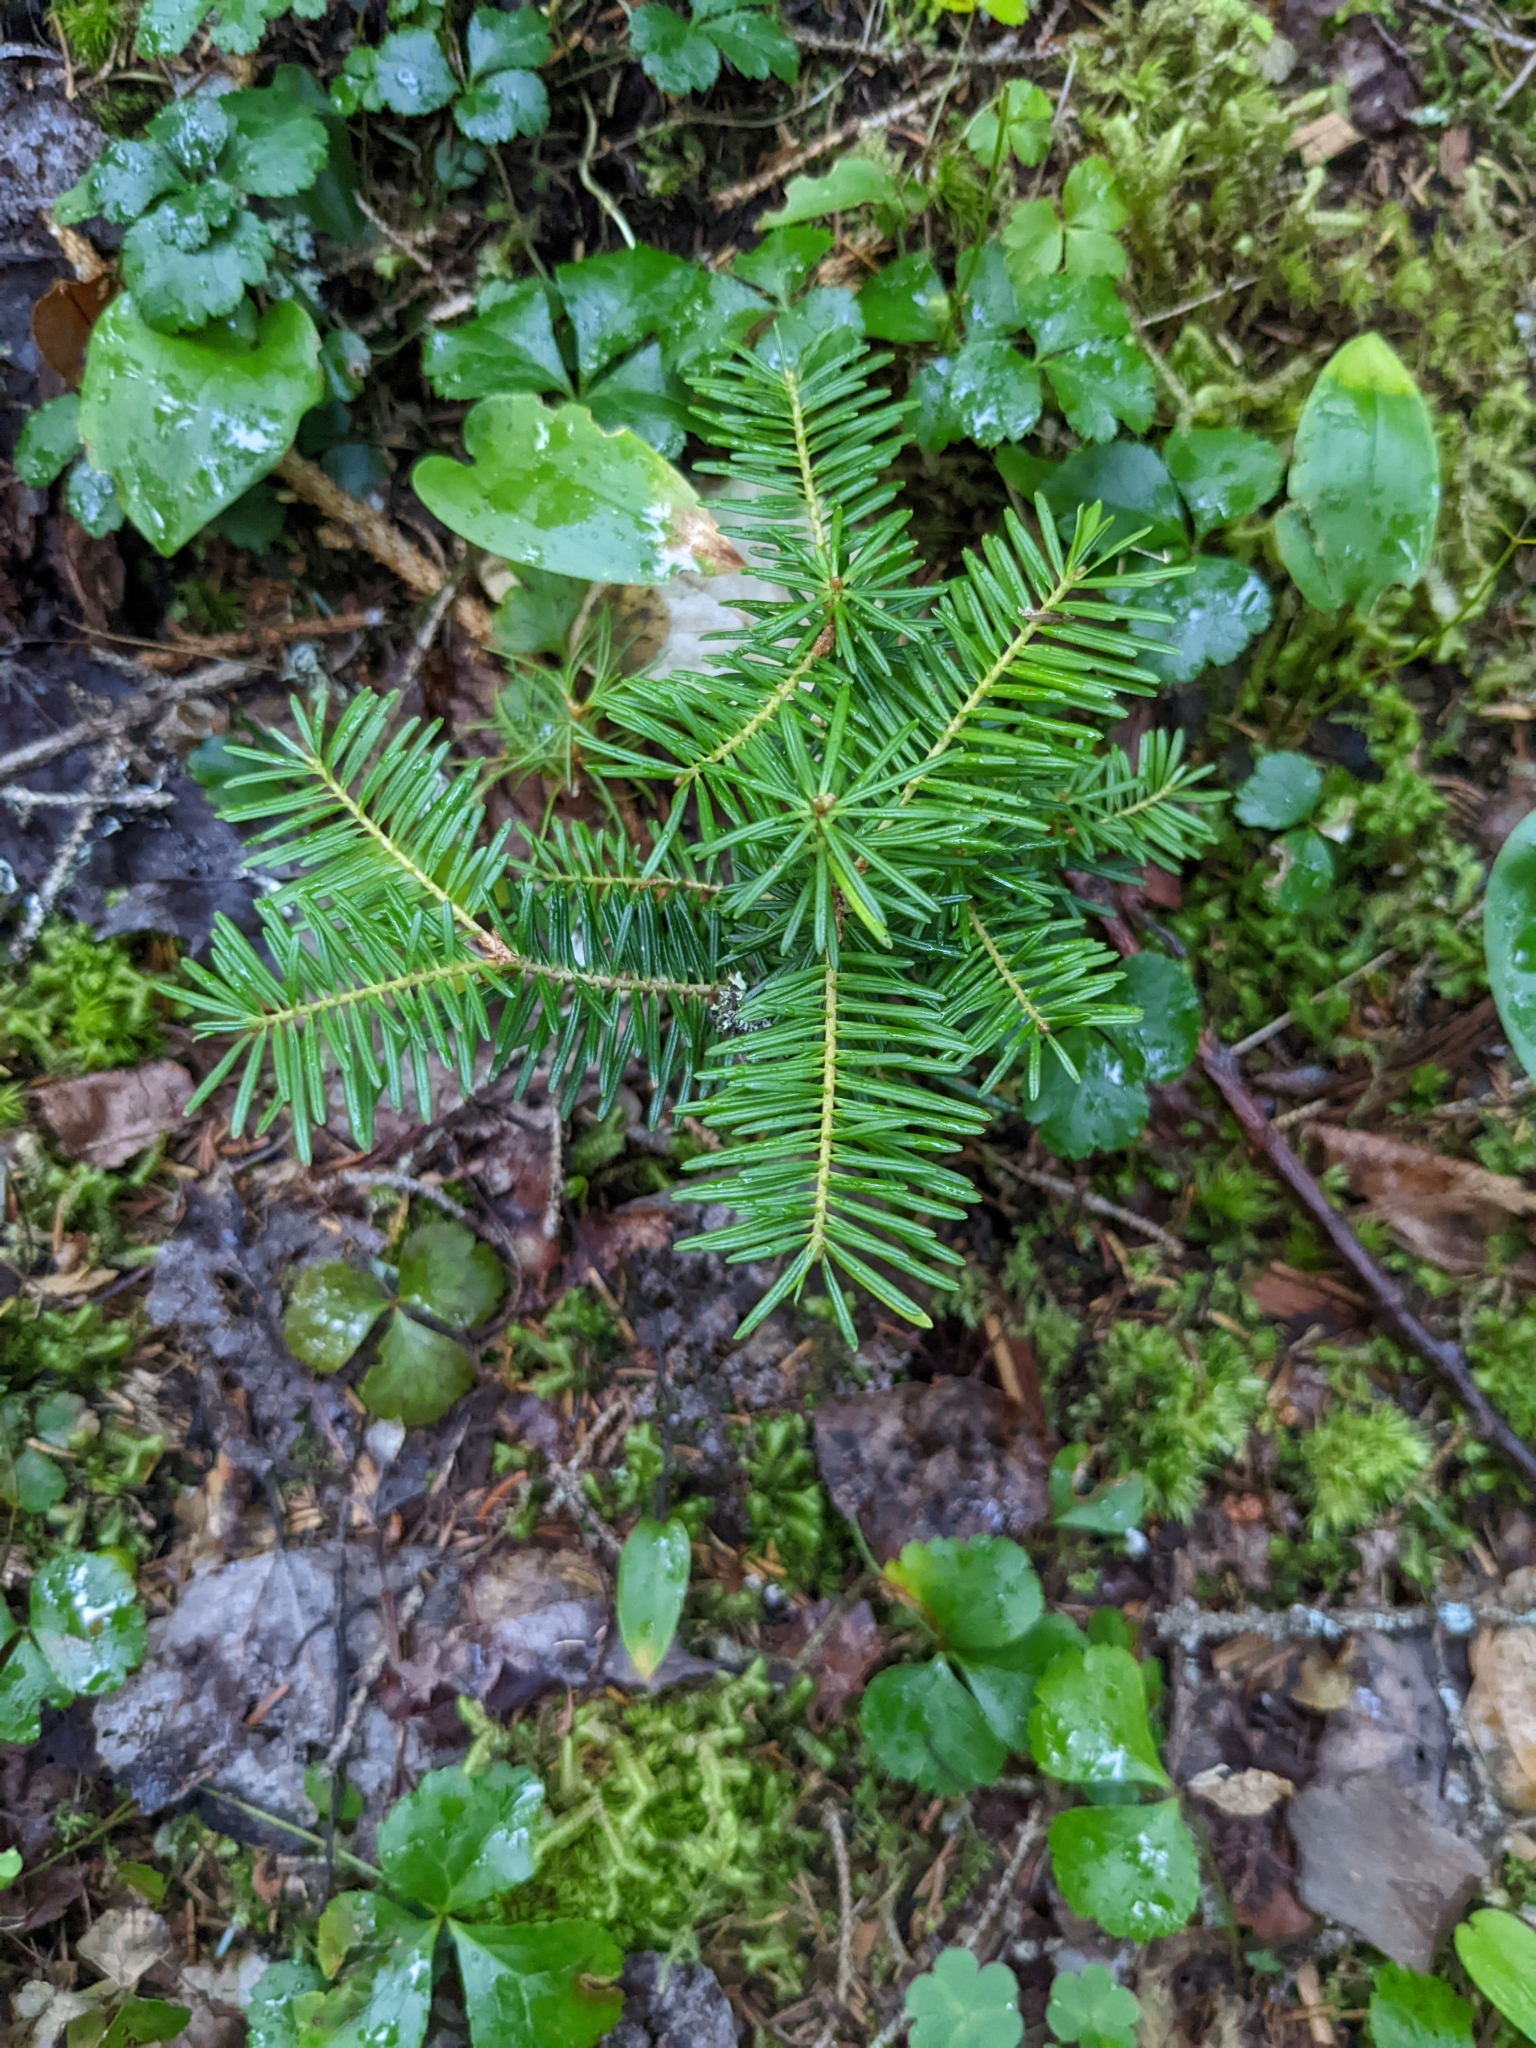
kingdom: Plantae
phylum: Tracheophyta
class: Pinopsida
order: Pinales
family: Pinaceae
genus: Abies
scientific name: Abies balsamea
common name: Balsam fir
